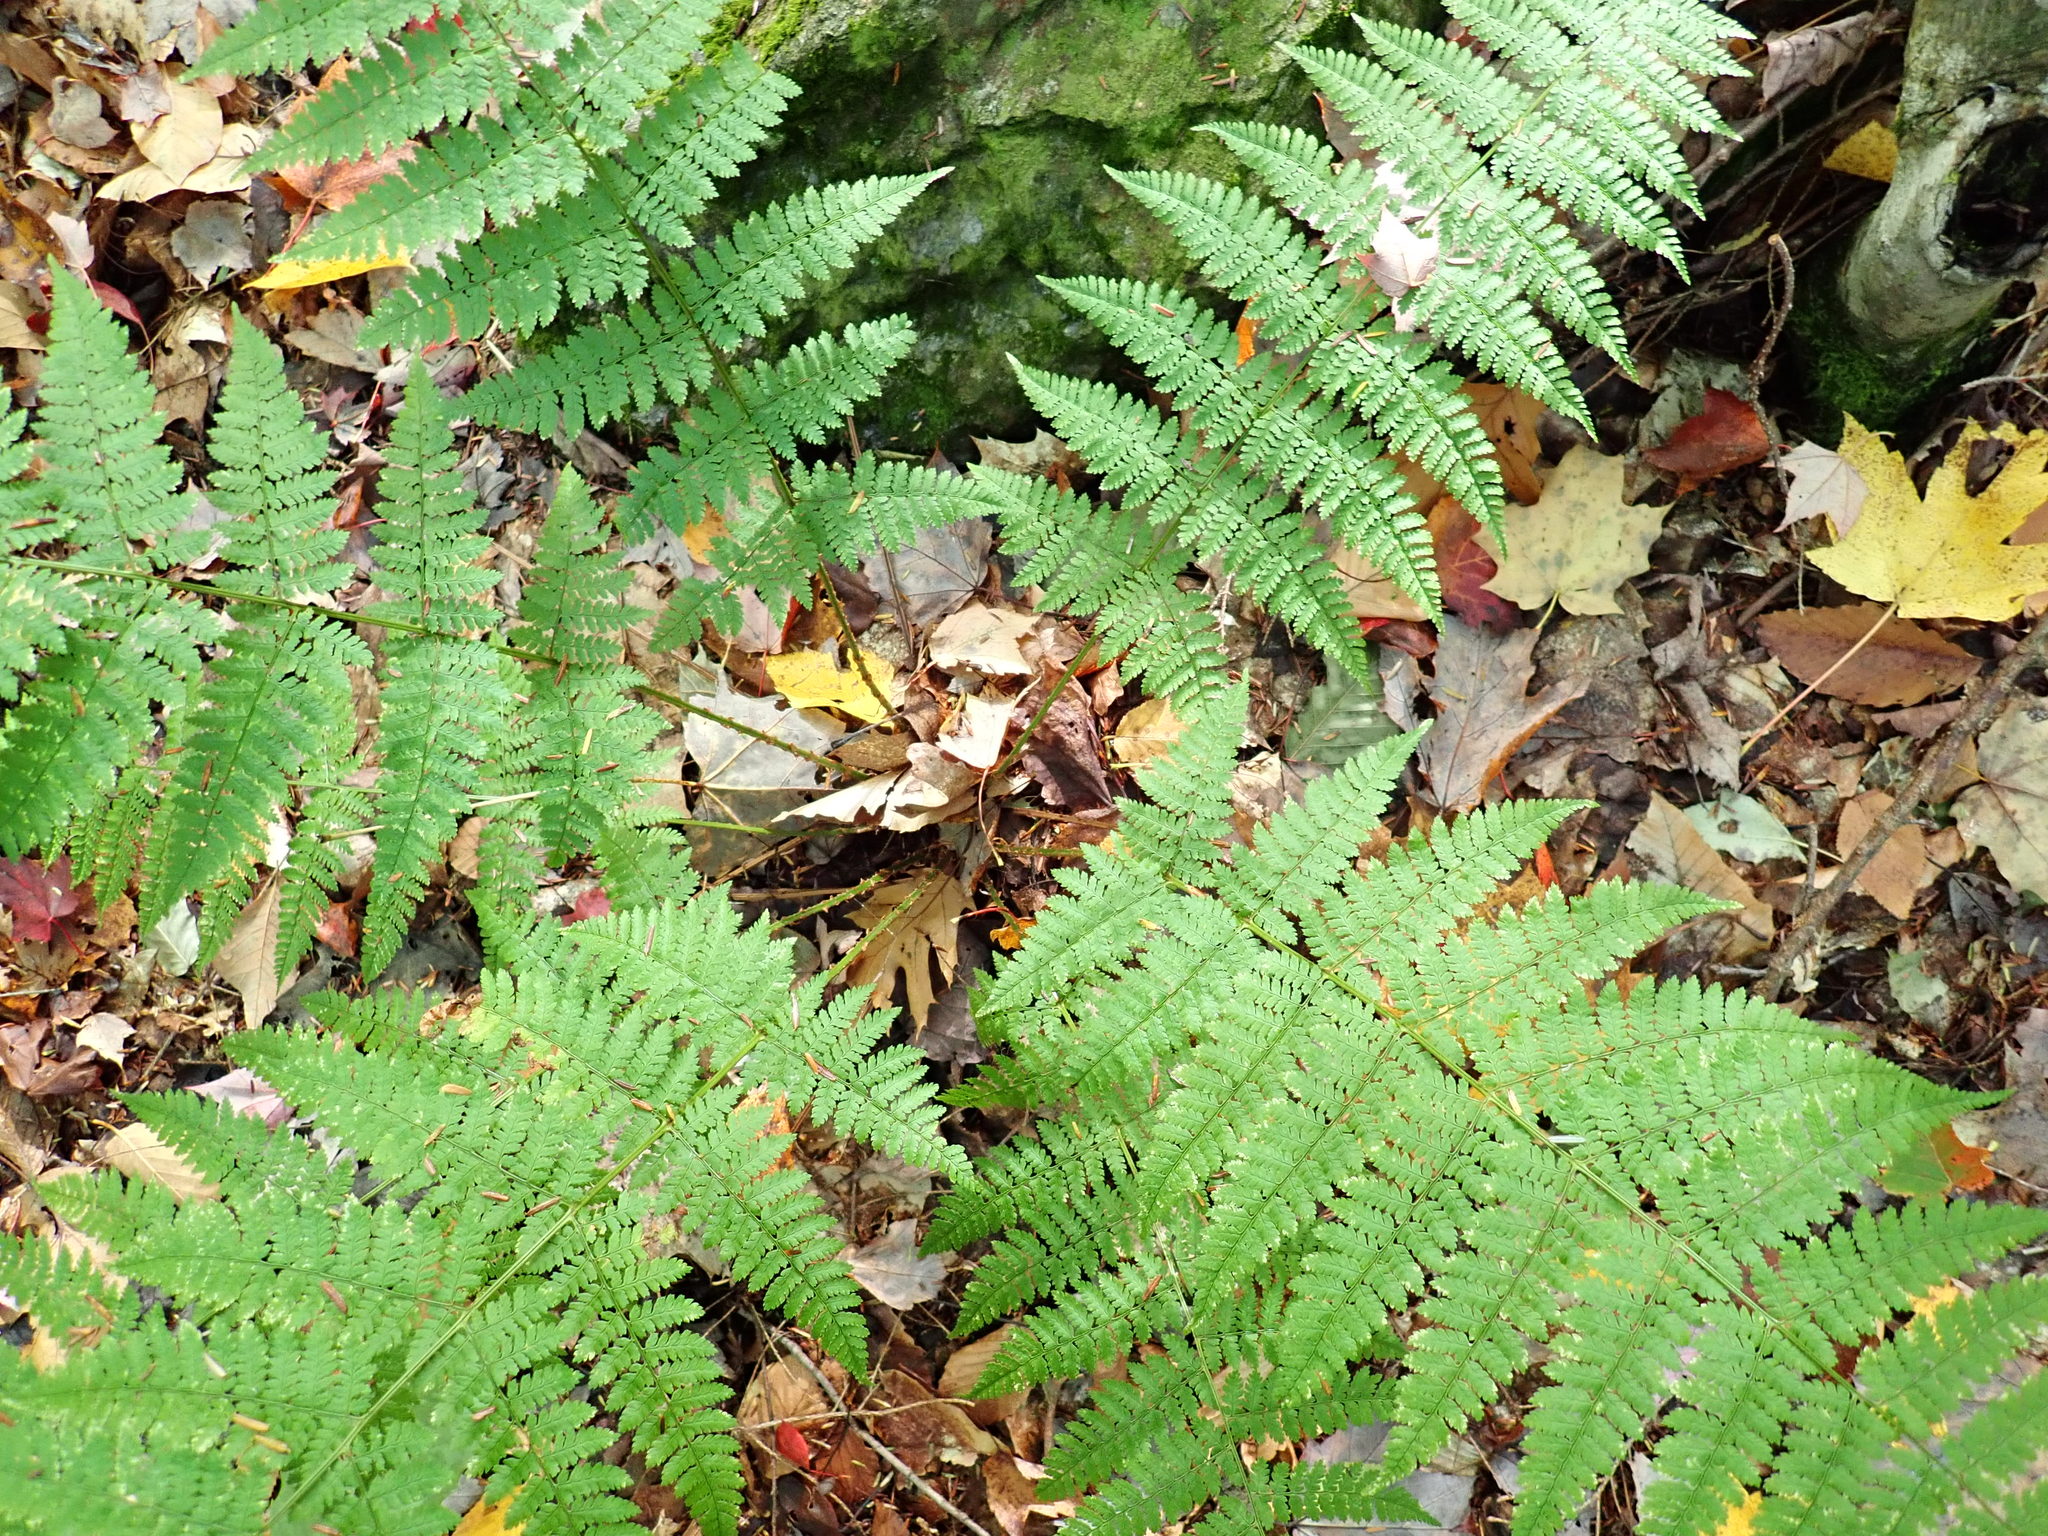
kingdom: Plantae
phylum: Tracheophyta
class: Polypodiopsida
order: Polypodiales
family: Dryopteridaceae
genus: Dryopteris
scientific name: Dryopteris intermedia
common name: Evergreen wood fern
